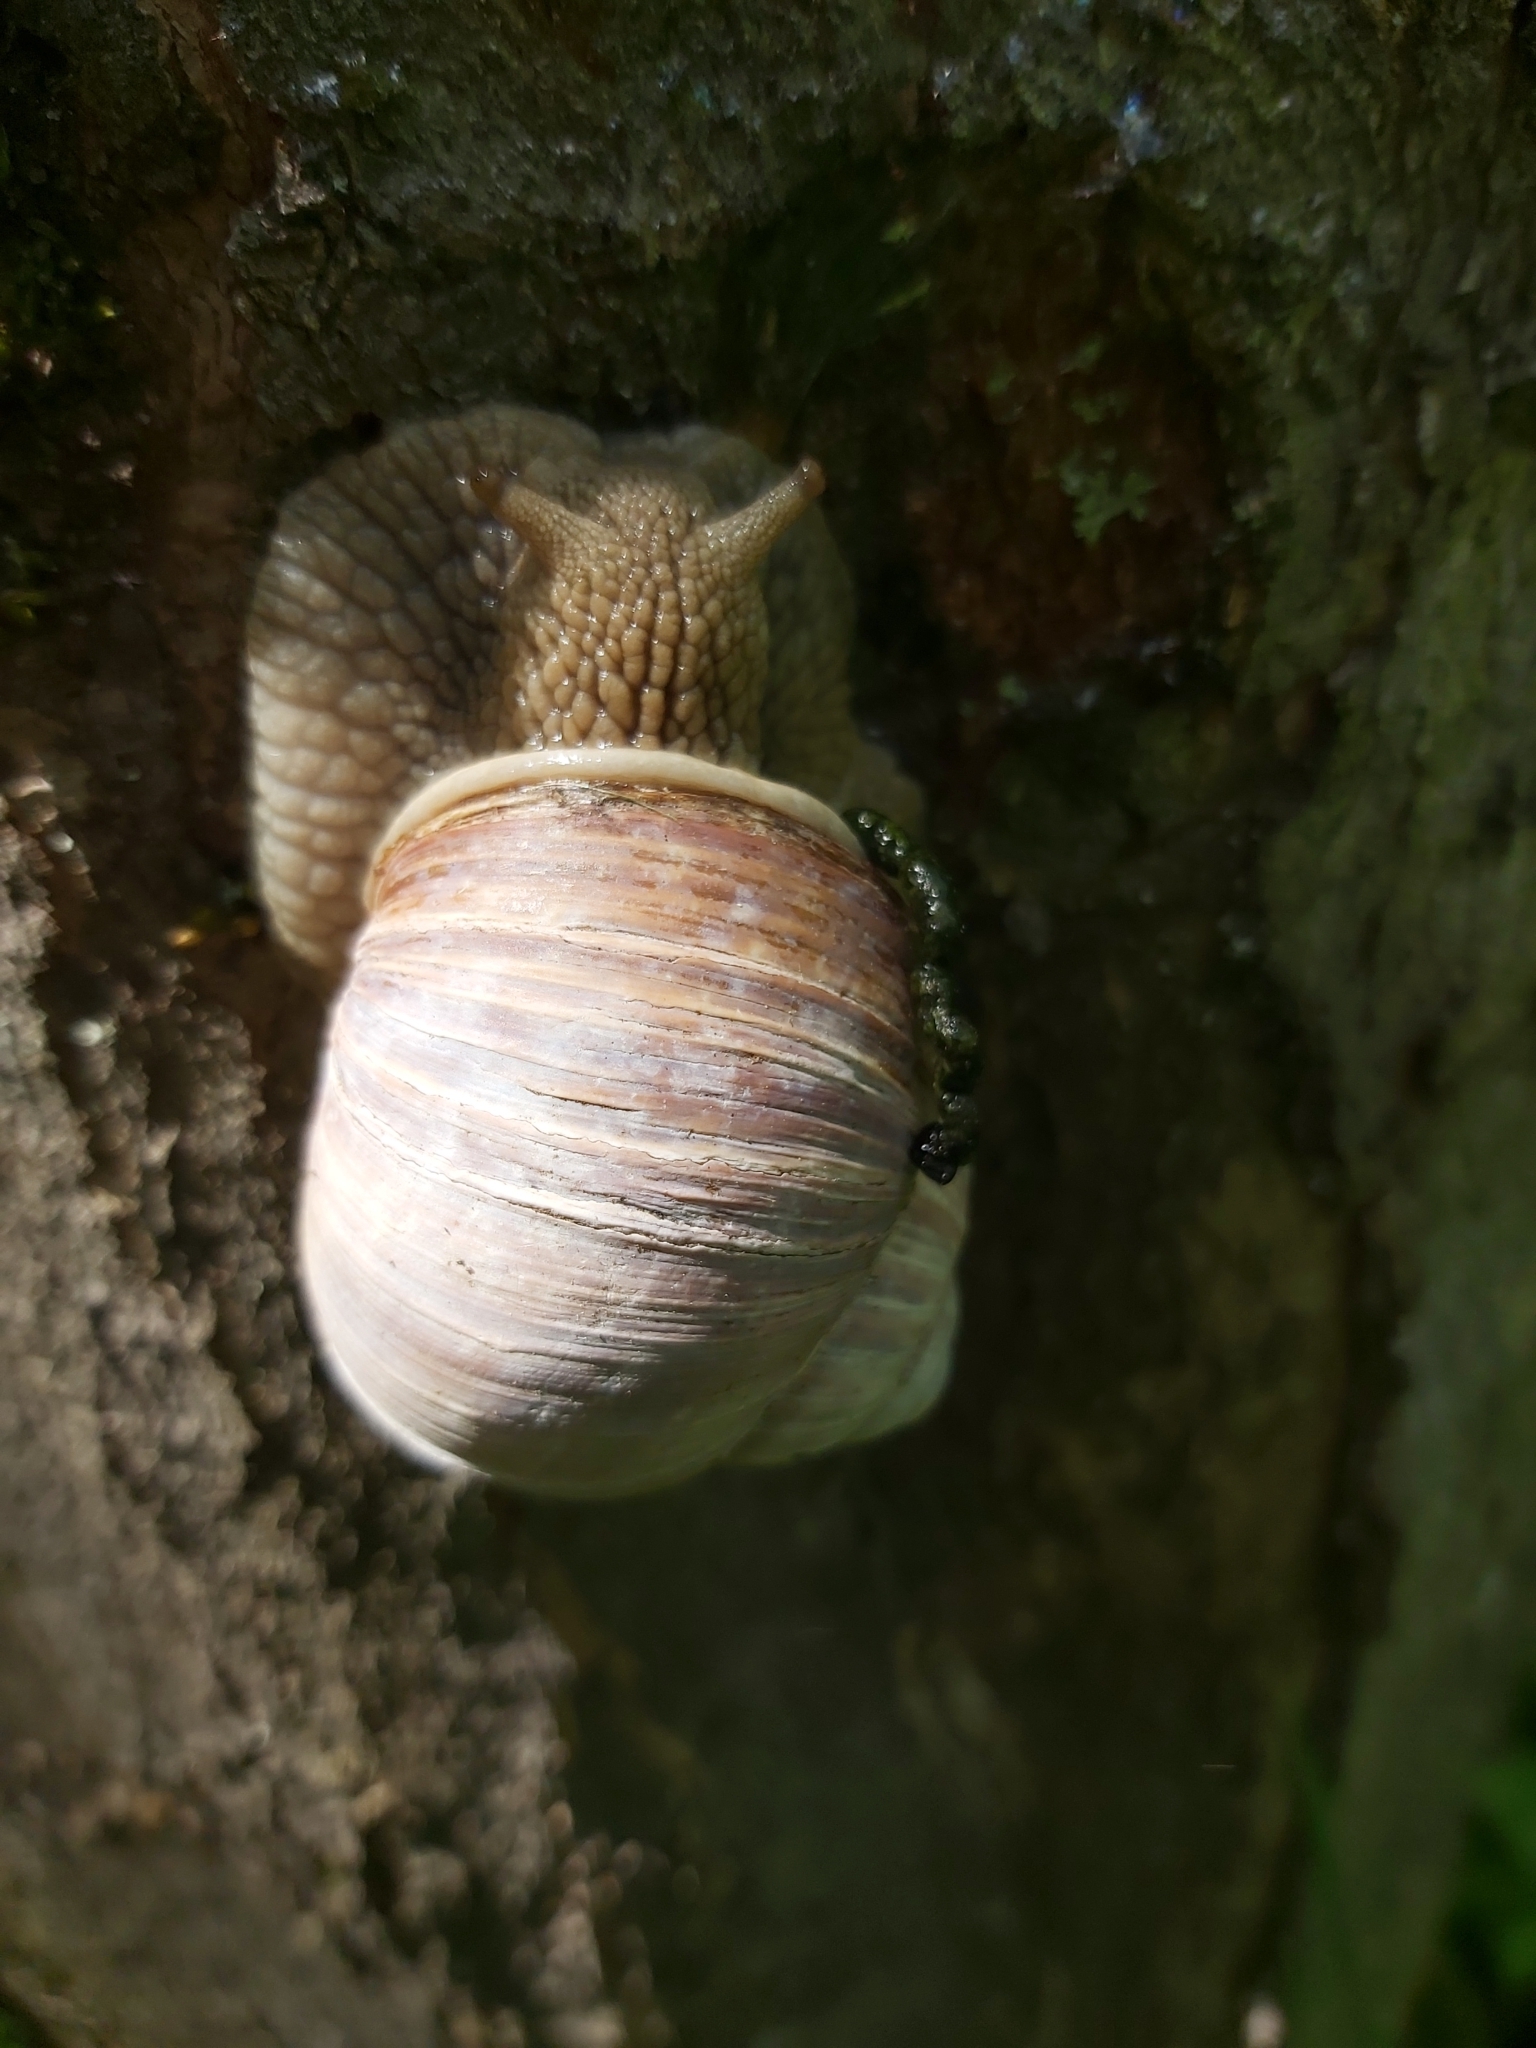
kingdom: Animalia
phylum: Mollusca
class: Gastropoda
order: Stylommatophora
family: Helicidae
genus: Helix
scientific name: Helix pomatia
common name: Roman snail
